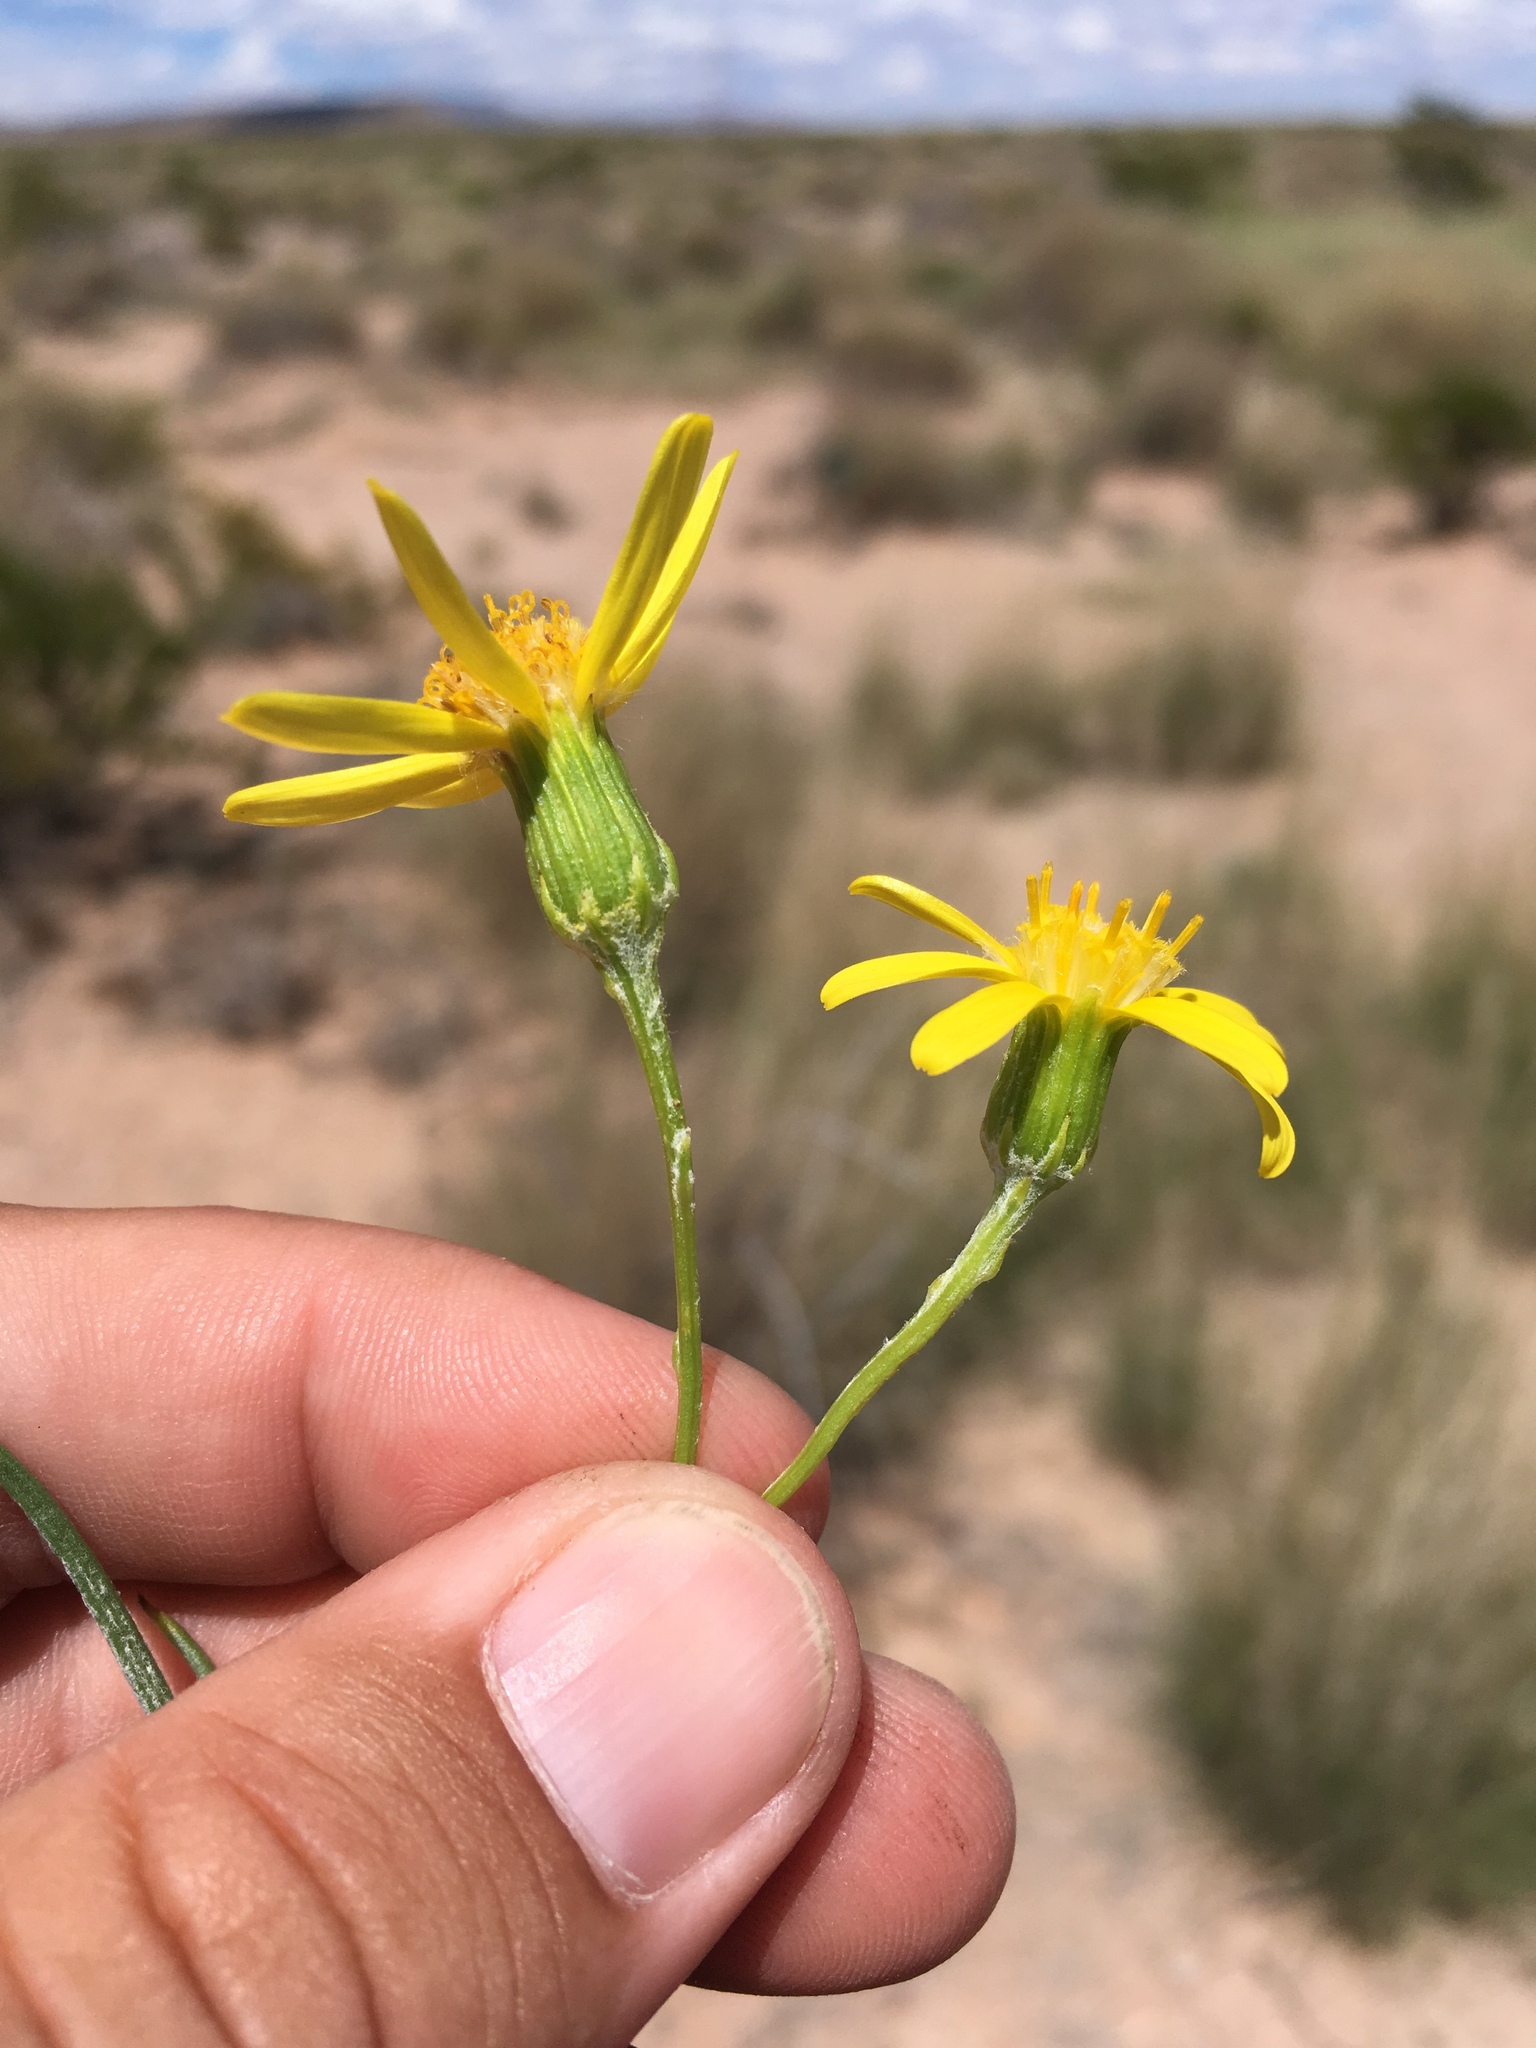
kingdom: Plantae
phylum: Tracheophyta
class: Magnoliopsida
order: Asterales
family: Asteraceae
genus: Senecio
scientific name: Senecio flaccidus
